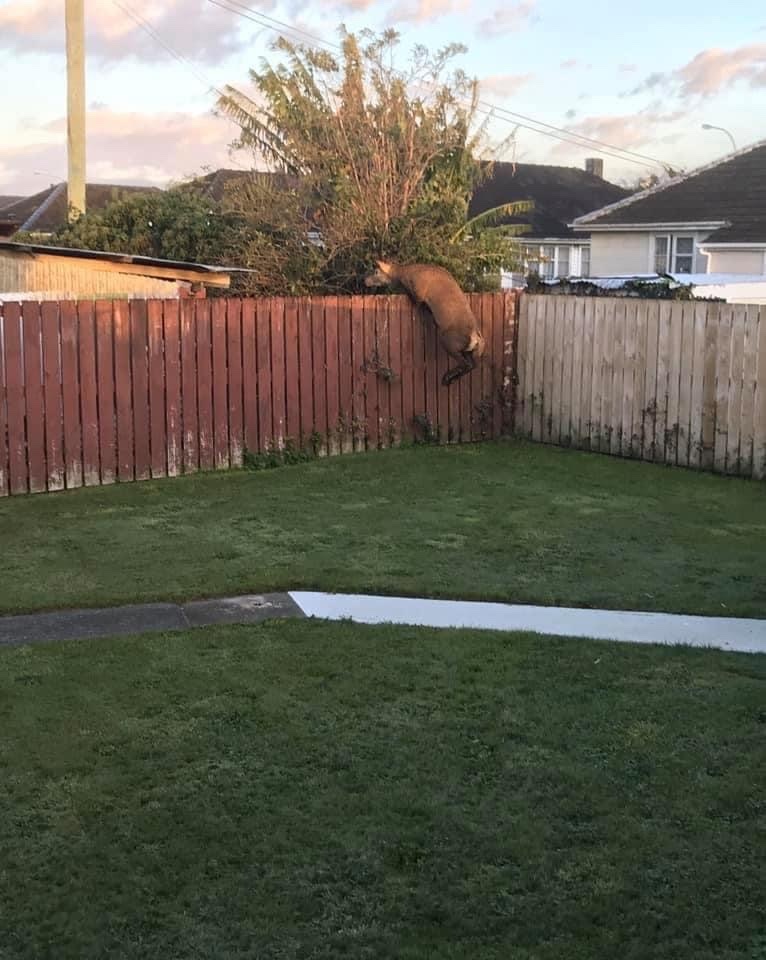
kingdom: Animalia
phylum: Chordata
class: Mammalia
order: Artiodactyla
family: Cervidae
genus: Cervus
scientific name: Cervus elaphus
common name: Red deer
